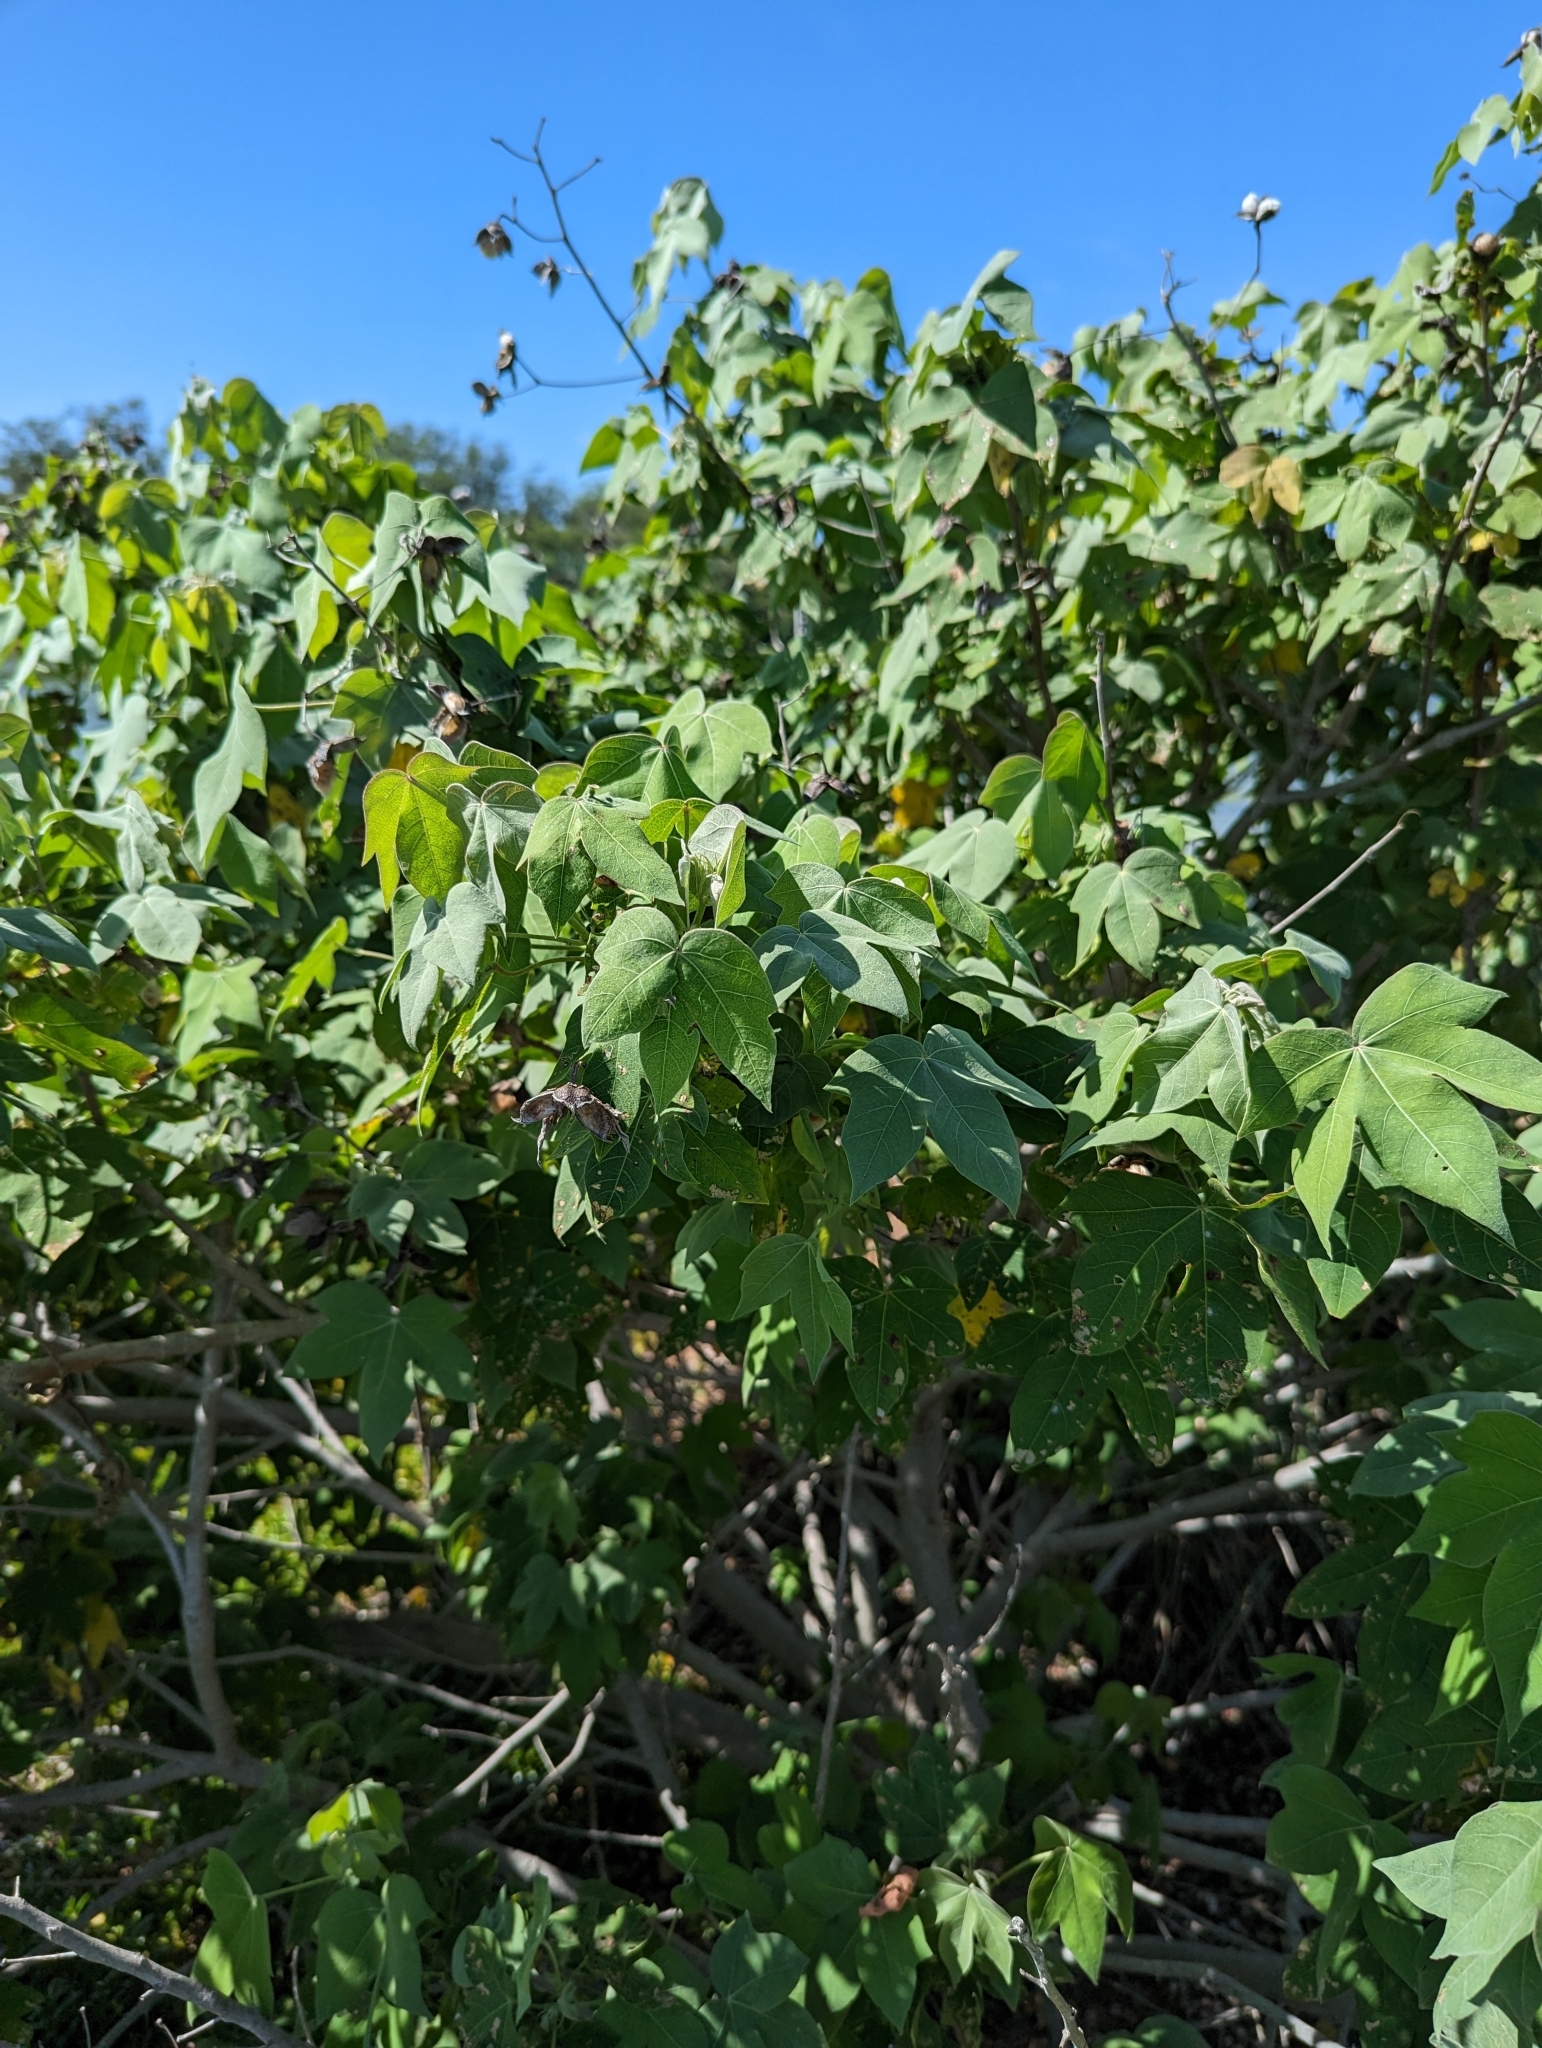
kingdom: Plantae
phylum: Tracheophyta
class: Magnoliopsida
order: Malvales
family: Malvaceae
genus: Gossypium
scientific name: Gossypium tomentosum
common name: Hawaiian cotton
